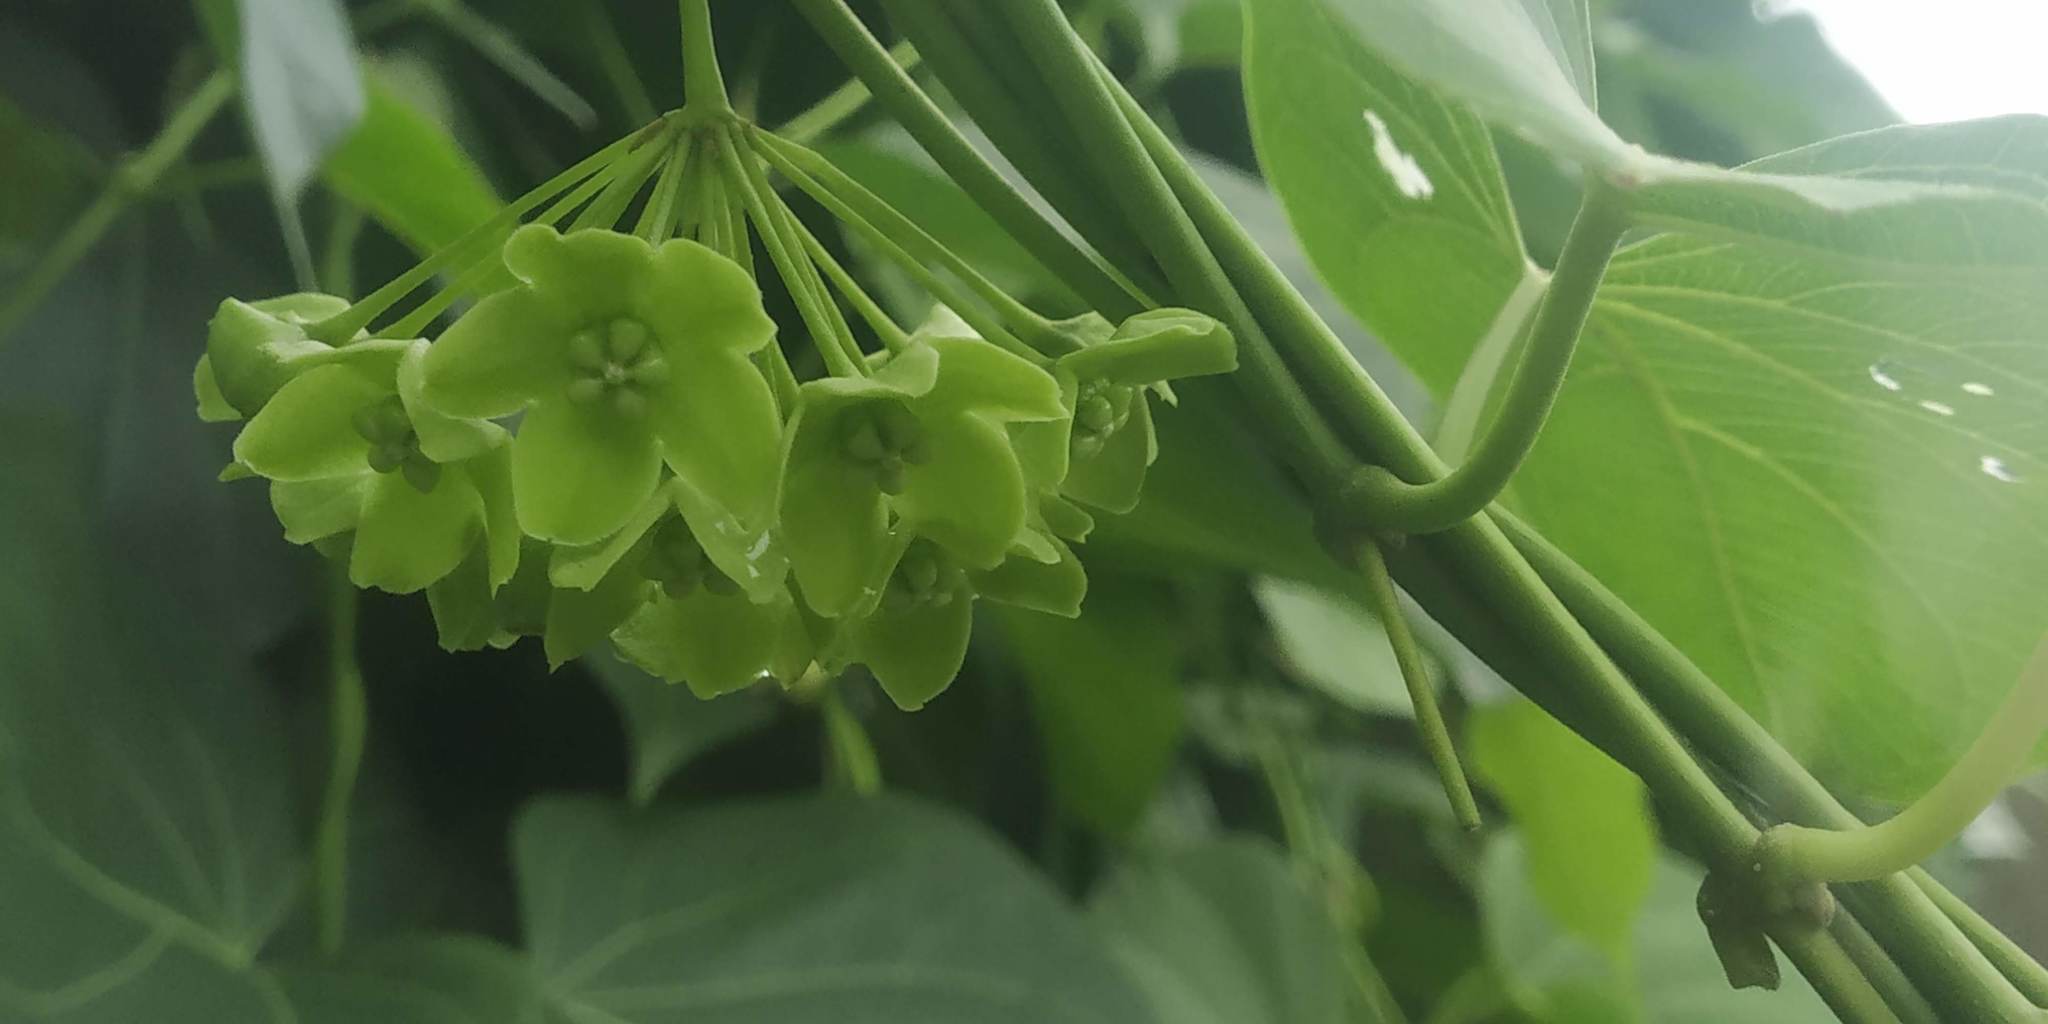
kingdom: Plantae
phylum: Tracheophyta
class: Magnoliopsida
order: Gentianales
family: Apocynaceae
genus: Stephanotis
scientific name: Stephanotis volubilis
